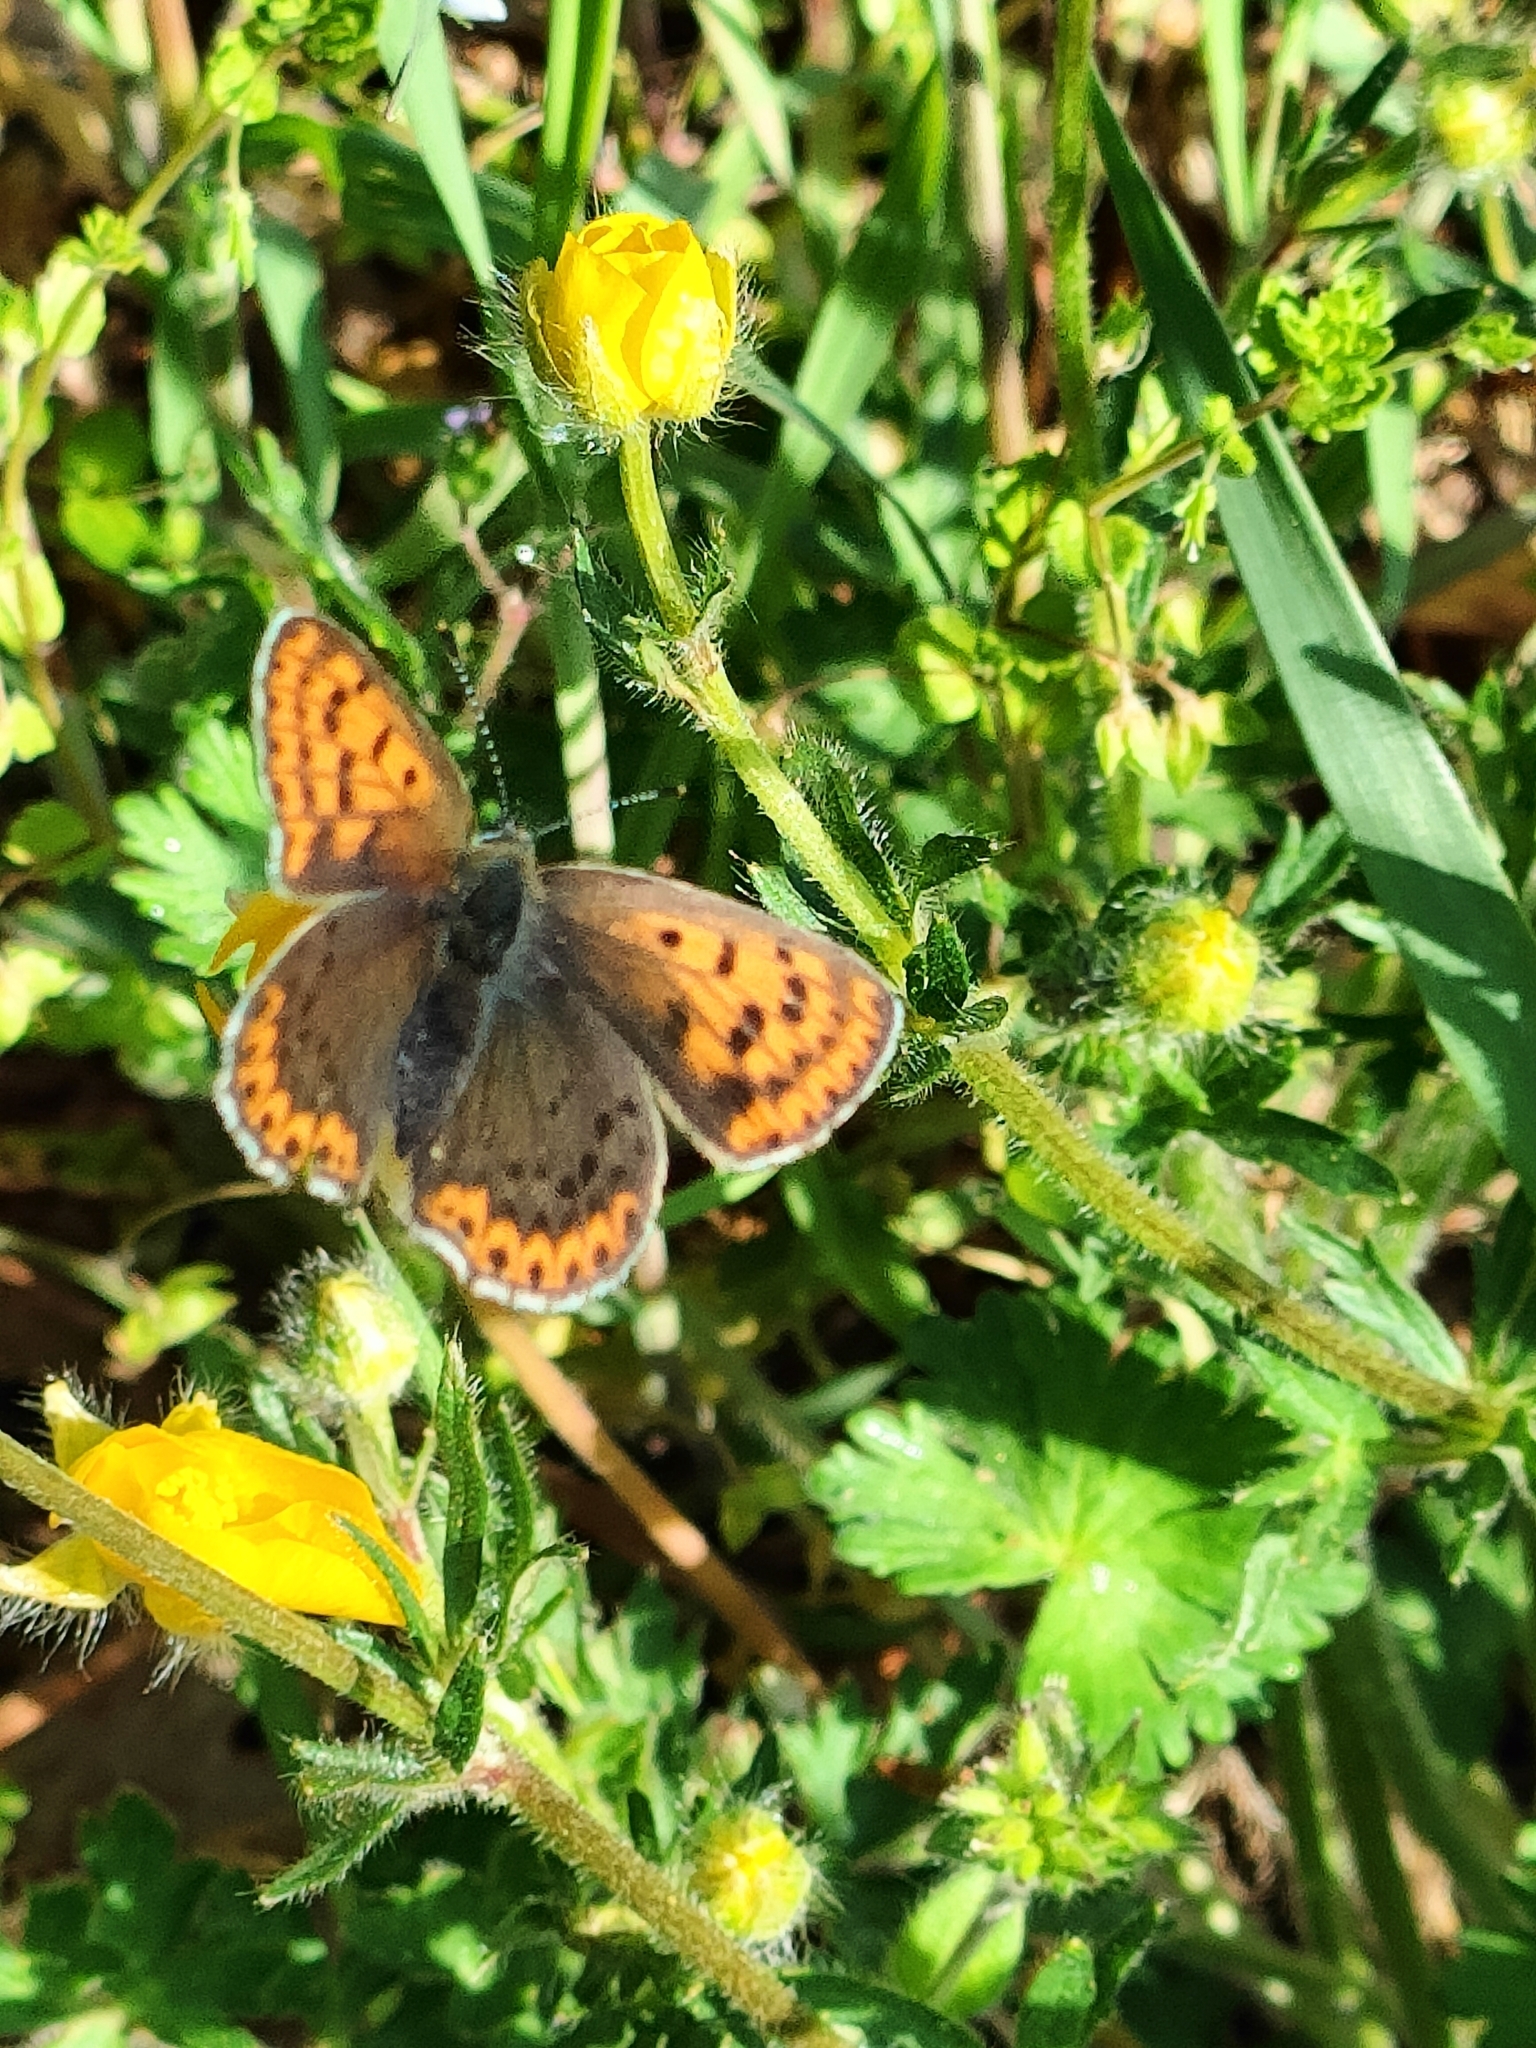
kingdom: Animalia
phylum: Arthropoda
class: Insecta
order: Lepidoptera
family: Lycaenidae
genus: Loweia
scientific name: Loweia tityrus
